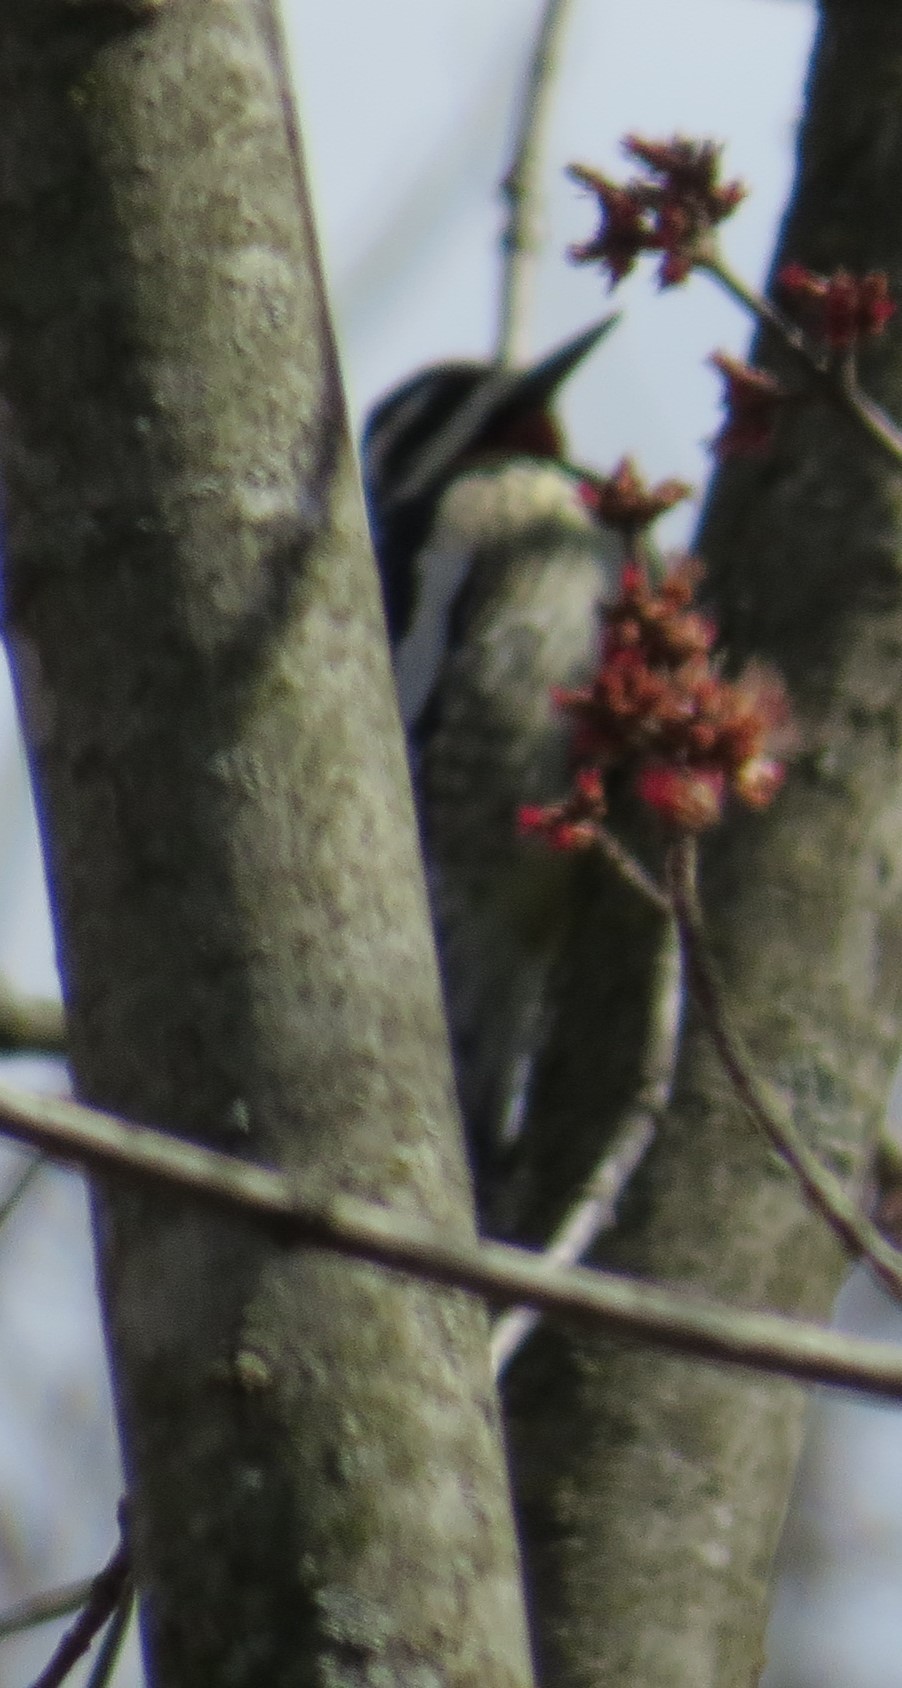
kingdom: Animalia
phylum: Chordata
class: Aves
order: Piciformes
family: Picidae
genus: Sphyrapicus
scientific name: Sphyrapicus varius
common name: Yellow-bellied sapsucker
